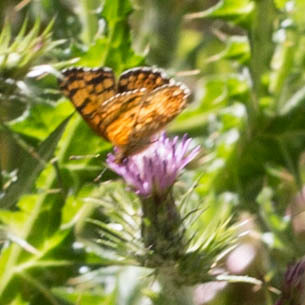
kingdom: Animalia
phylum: Arthropoda
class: Insecta
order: Lepidoptera
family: Nymphalidae
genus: Eresia
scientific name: Eresia aveyrona
